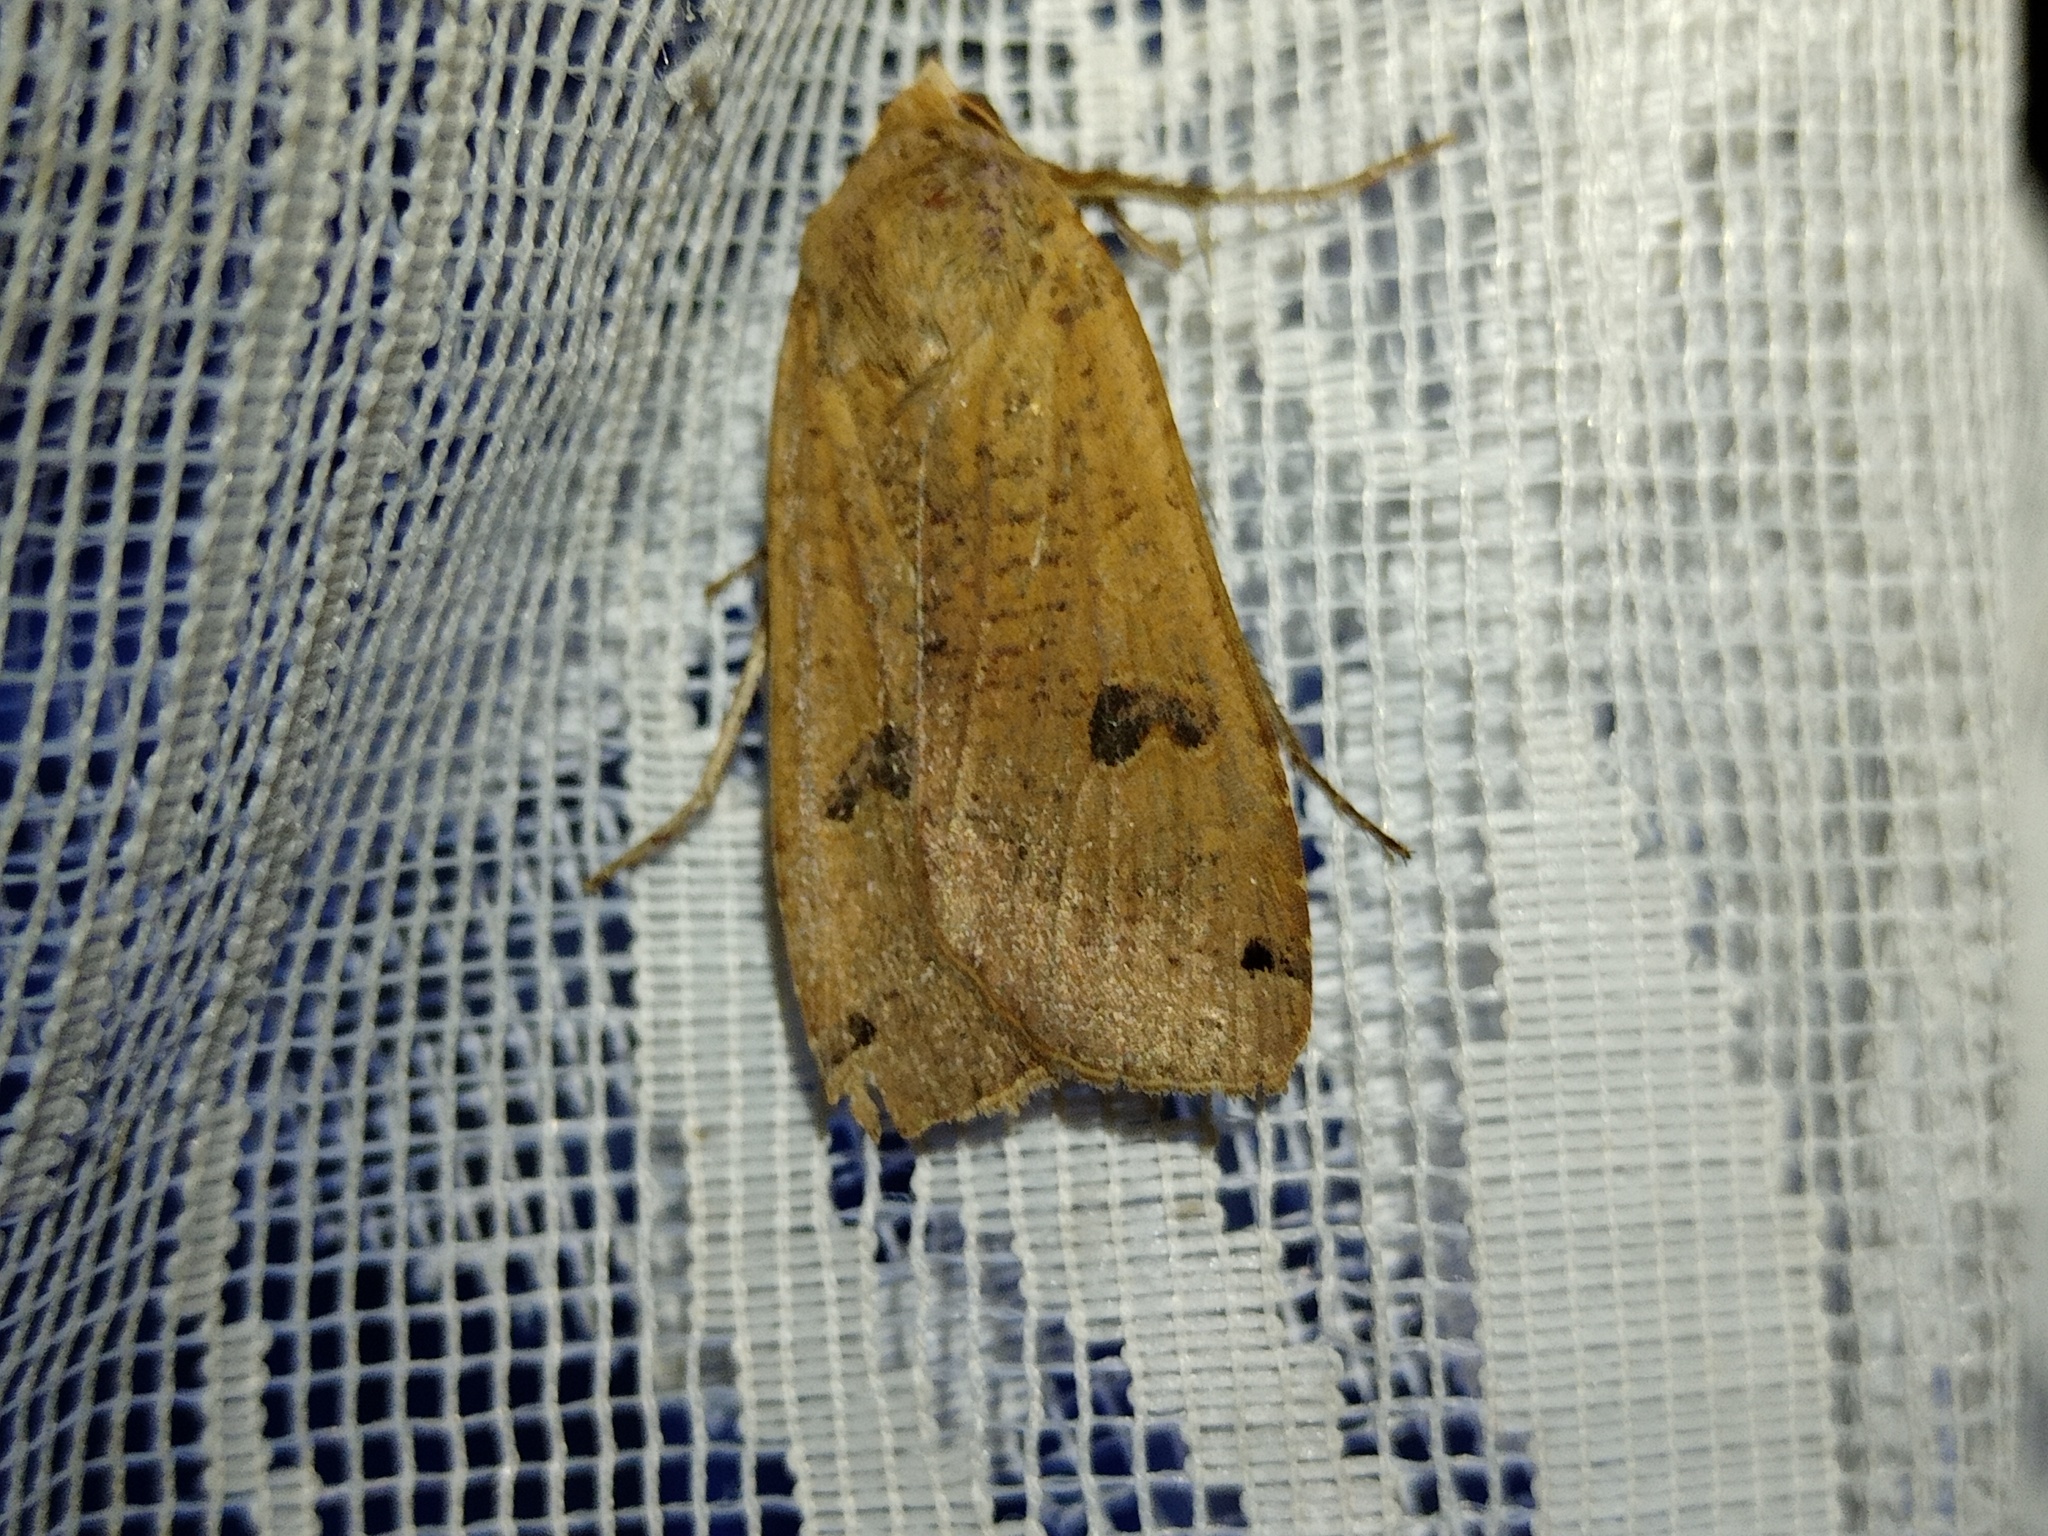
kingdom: Animalia
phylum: Arthropoda
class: Insecta
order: Lepidoptera
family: Noctuidae
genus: Noctua
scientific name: Noctua pronuba
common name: Large yellow underwing
